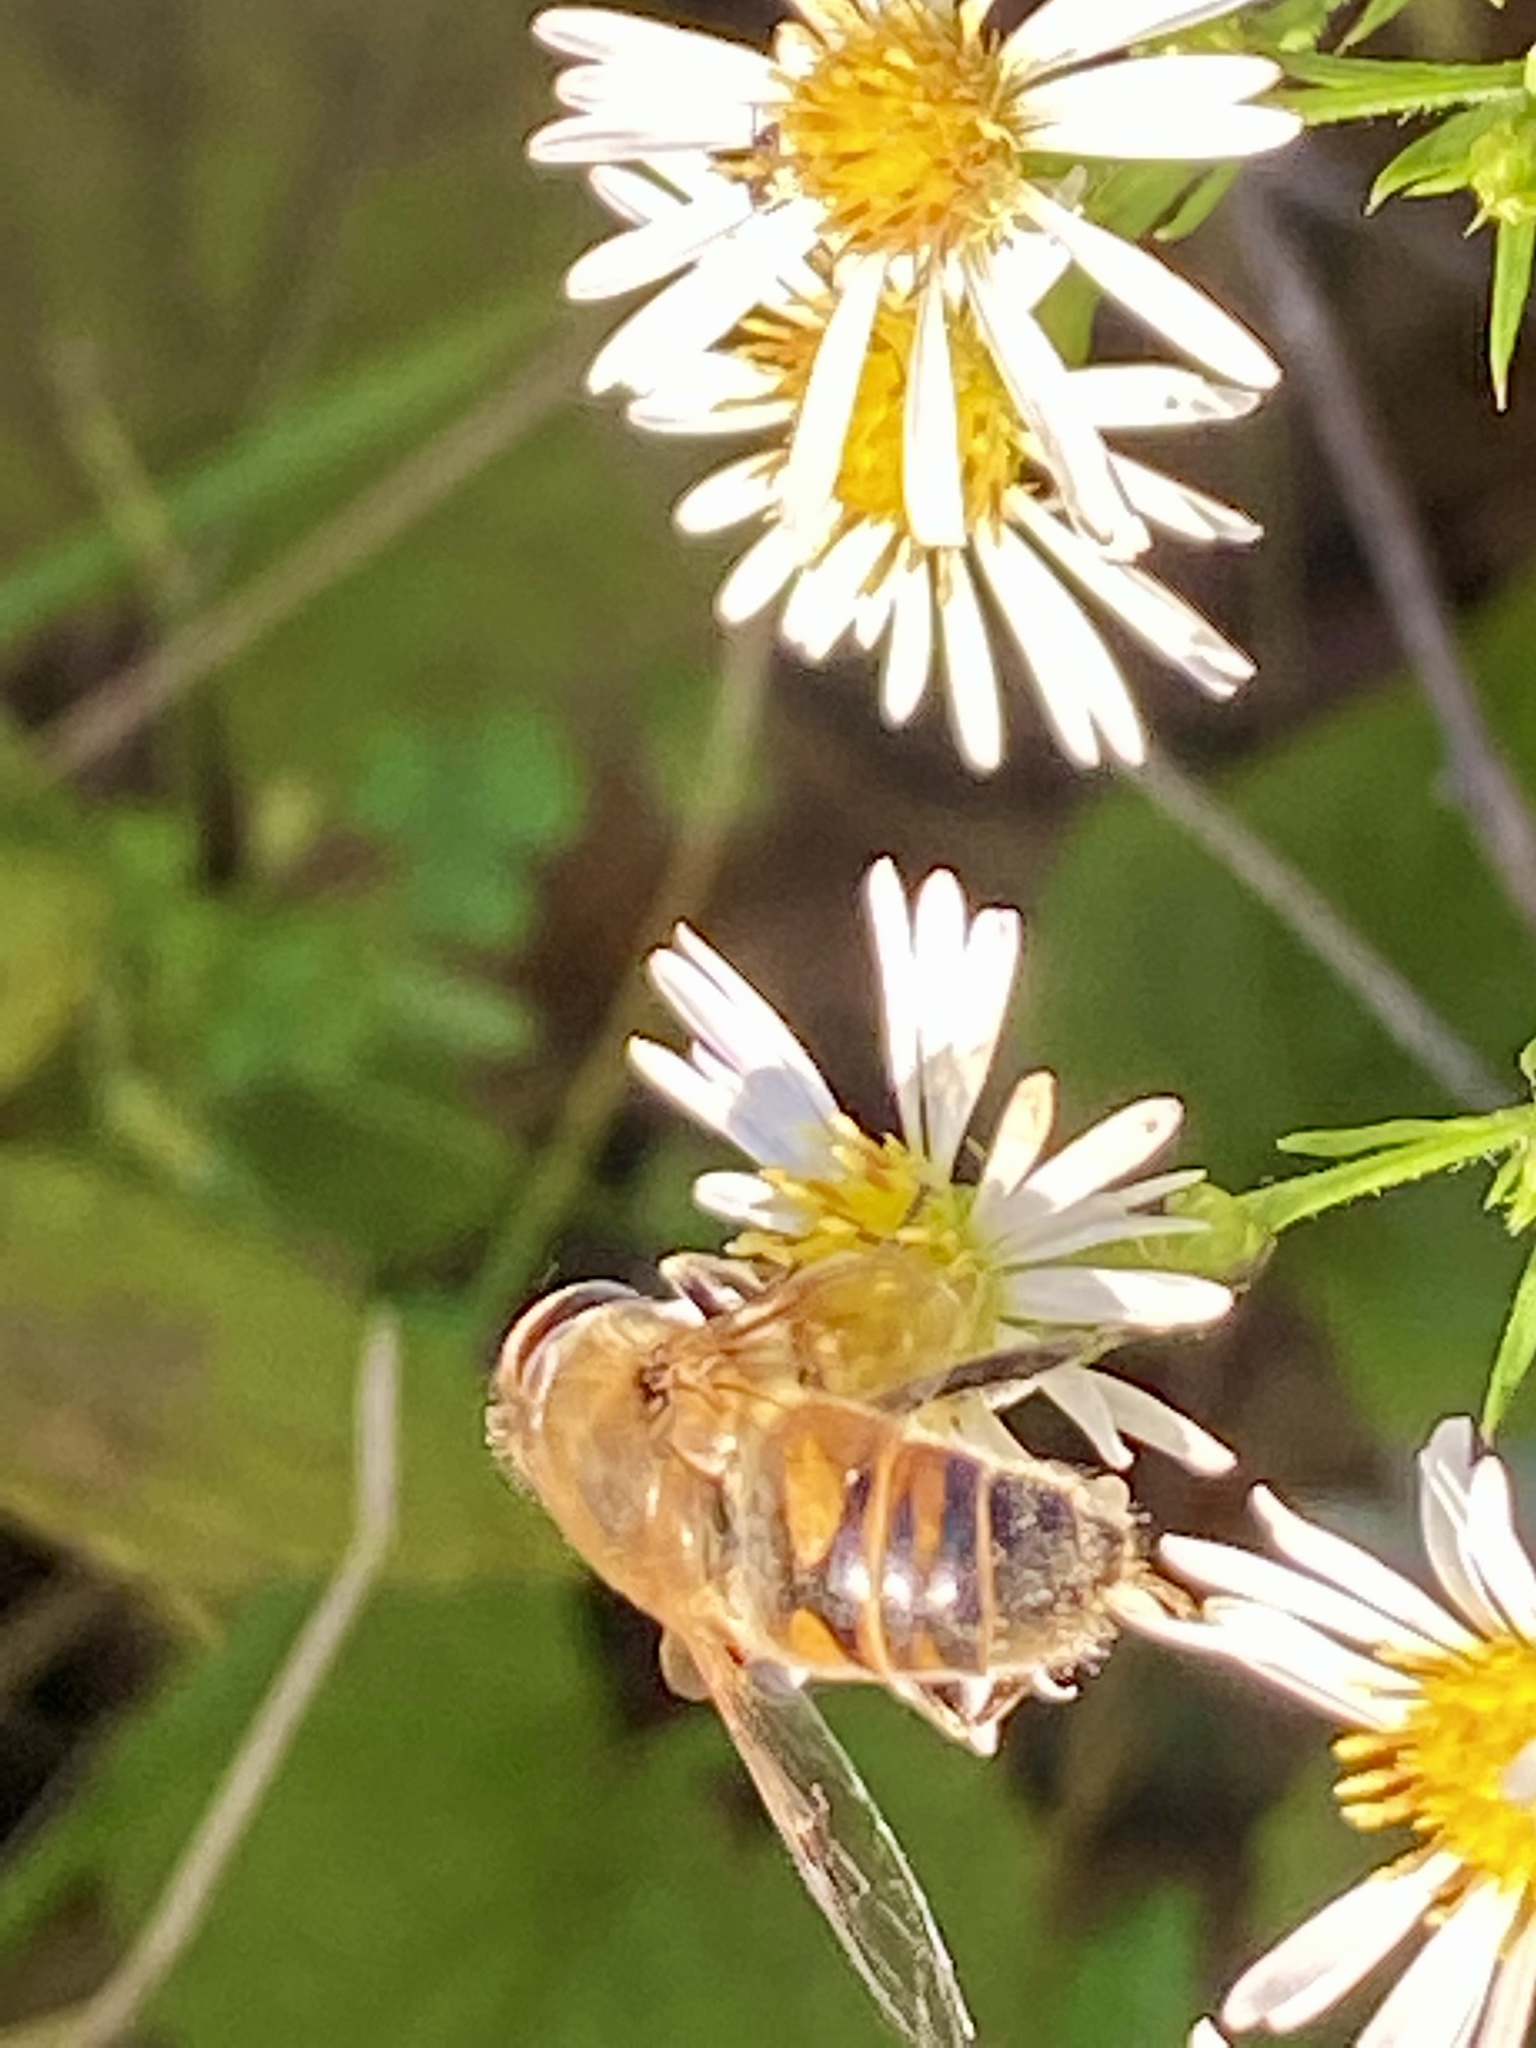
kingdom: Animalia
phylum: Arthropoda
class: Insecta
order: Diptera
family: Syrphidae
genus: Eristalis
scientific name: Eristalis tenax
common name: Drone fly
